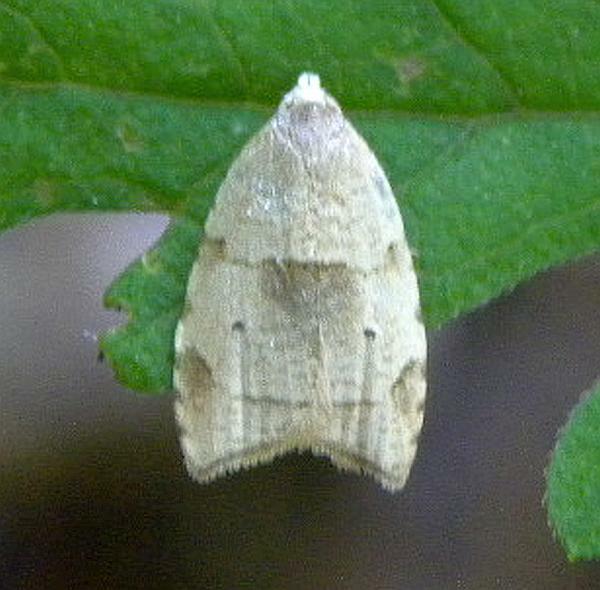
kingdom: Animalia
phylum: Arthropoda
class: Insecta
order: Lepidoptera
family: Tortricidae
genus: Coelostathma
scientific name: Coelostathma discopunctana
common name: Batman moth
